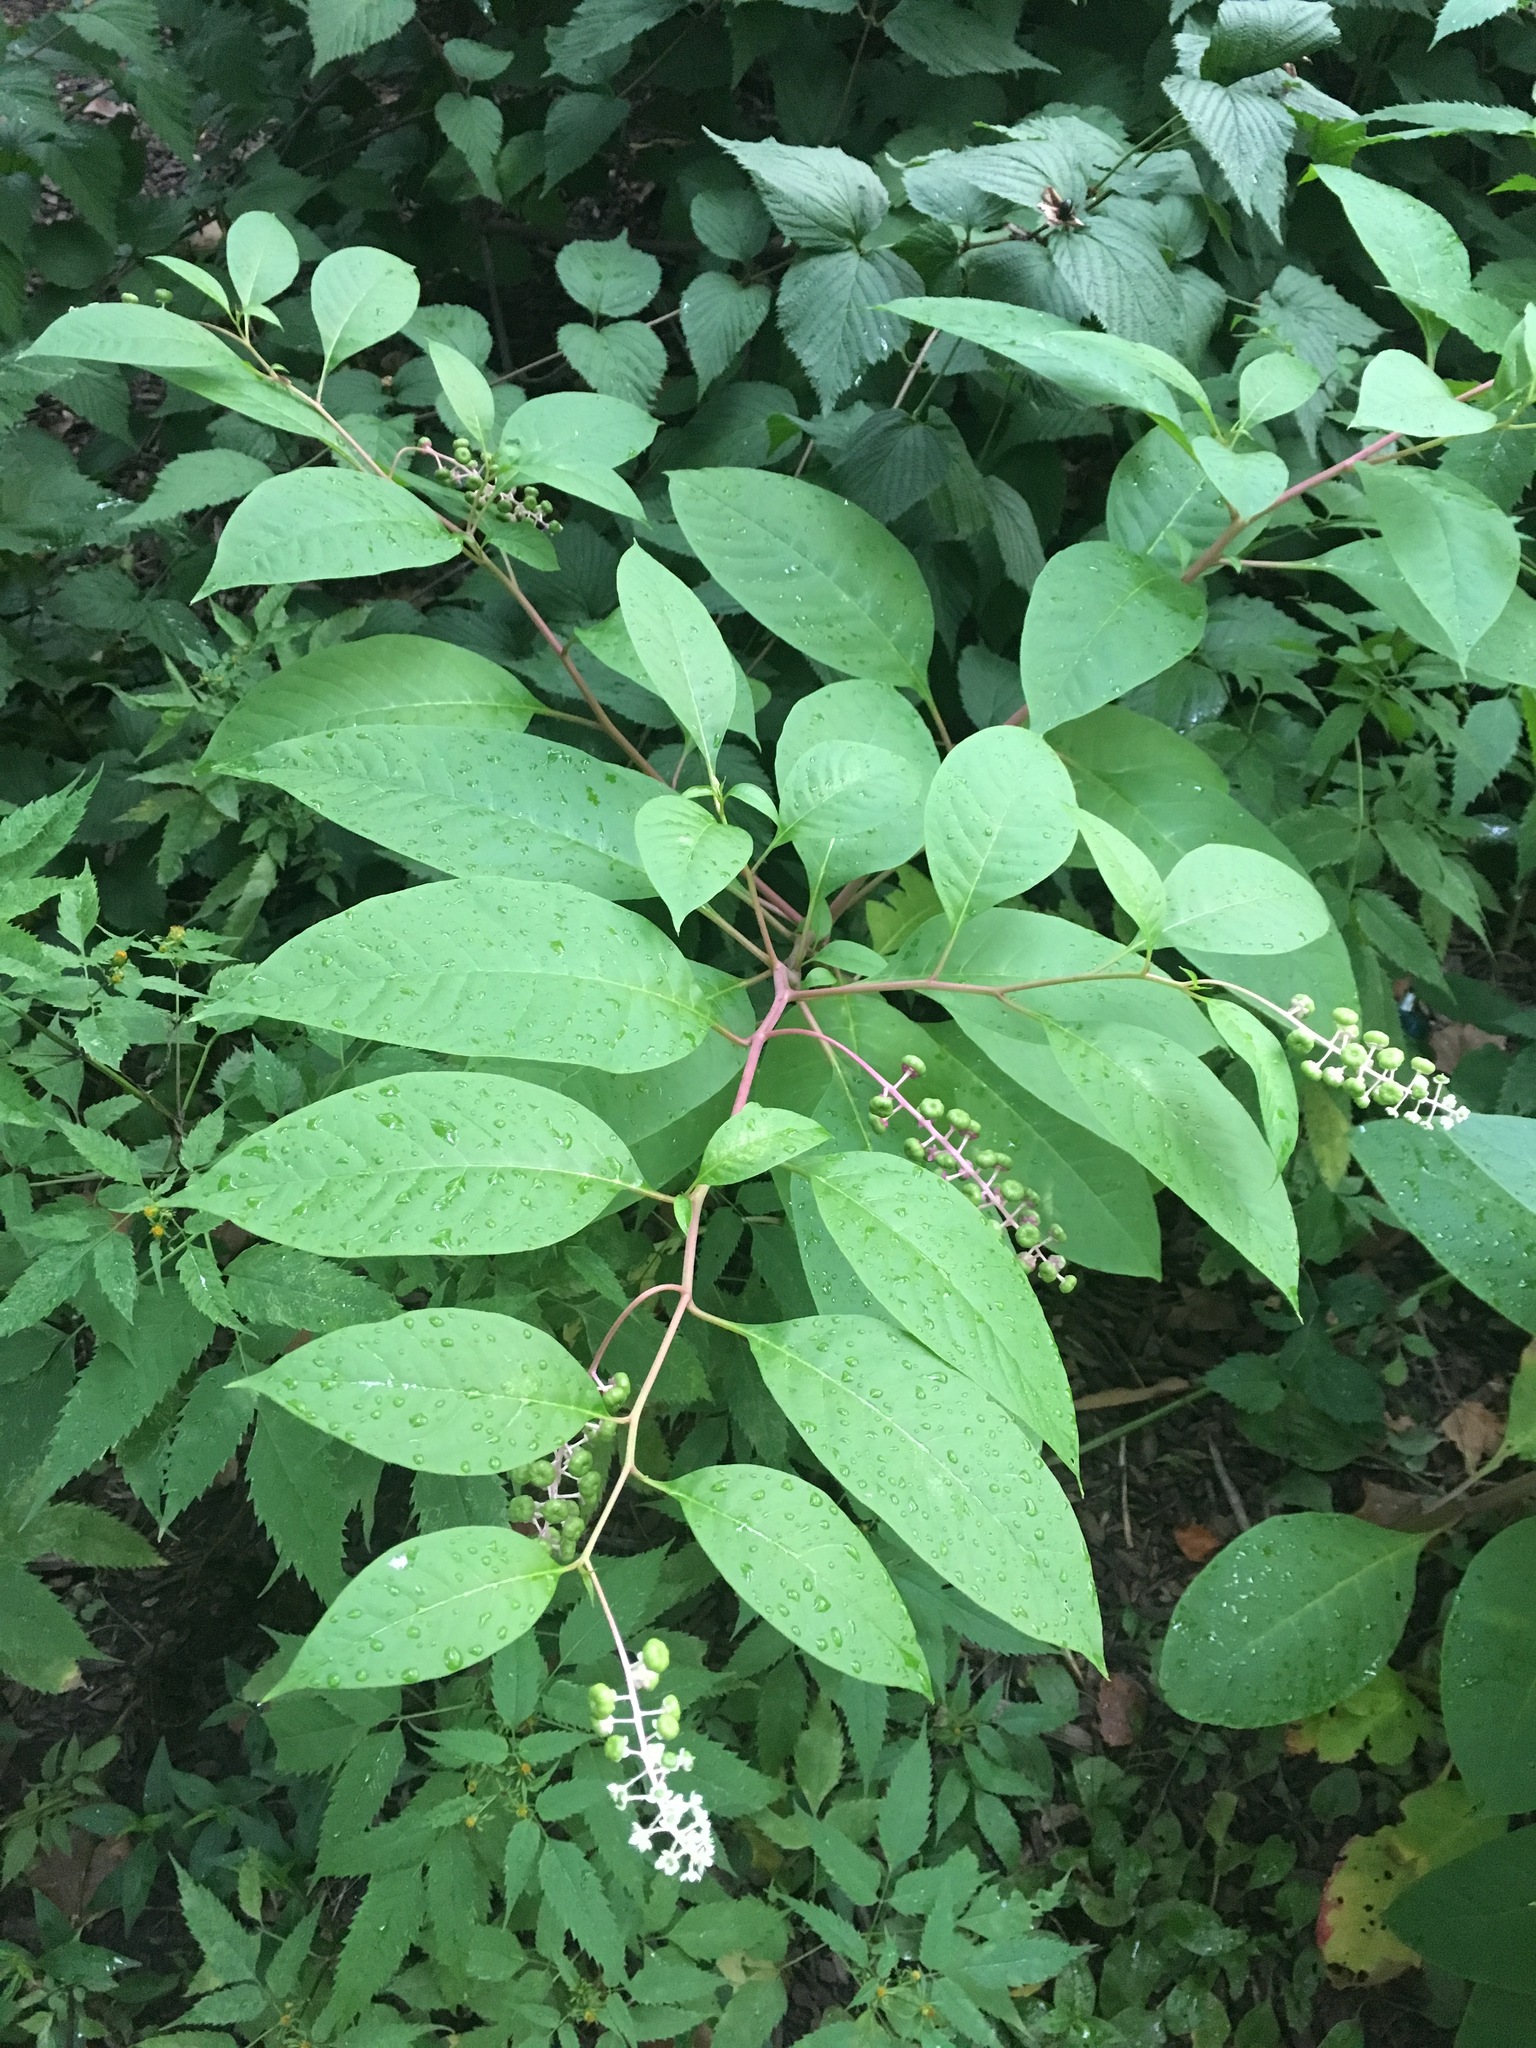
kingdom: Plantae
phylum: Tracheophyta
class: Magnoliopsida
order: Caryophyllales
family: Phytolaccaceae
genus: Phytolacca
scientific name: Phytolacca americana
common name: American pokeweed
